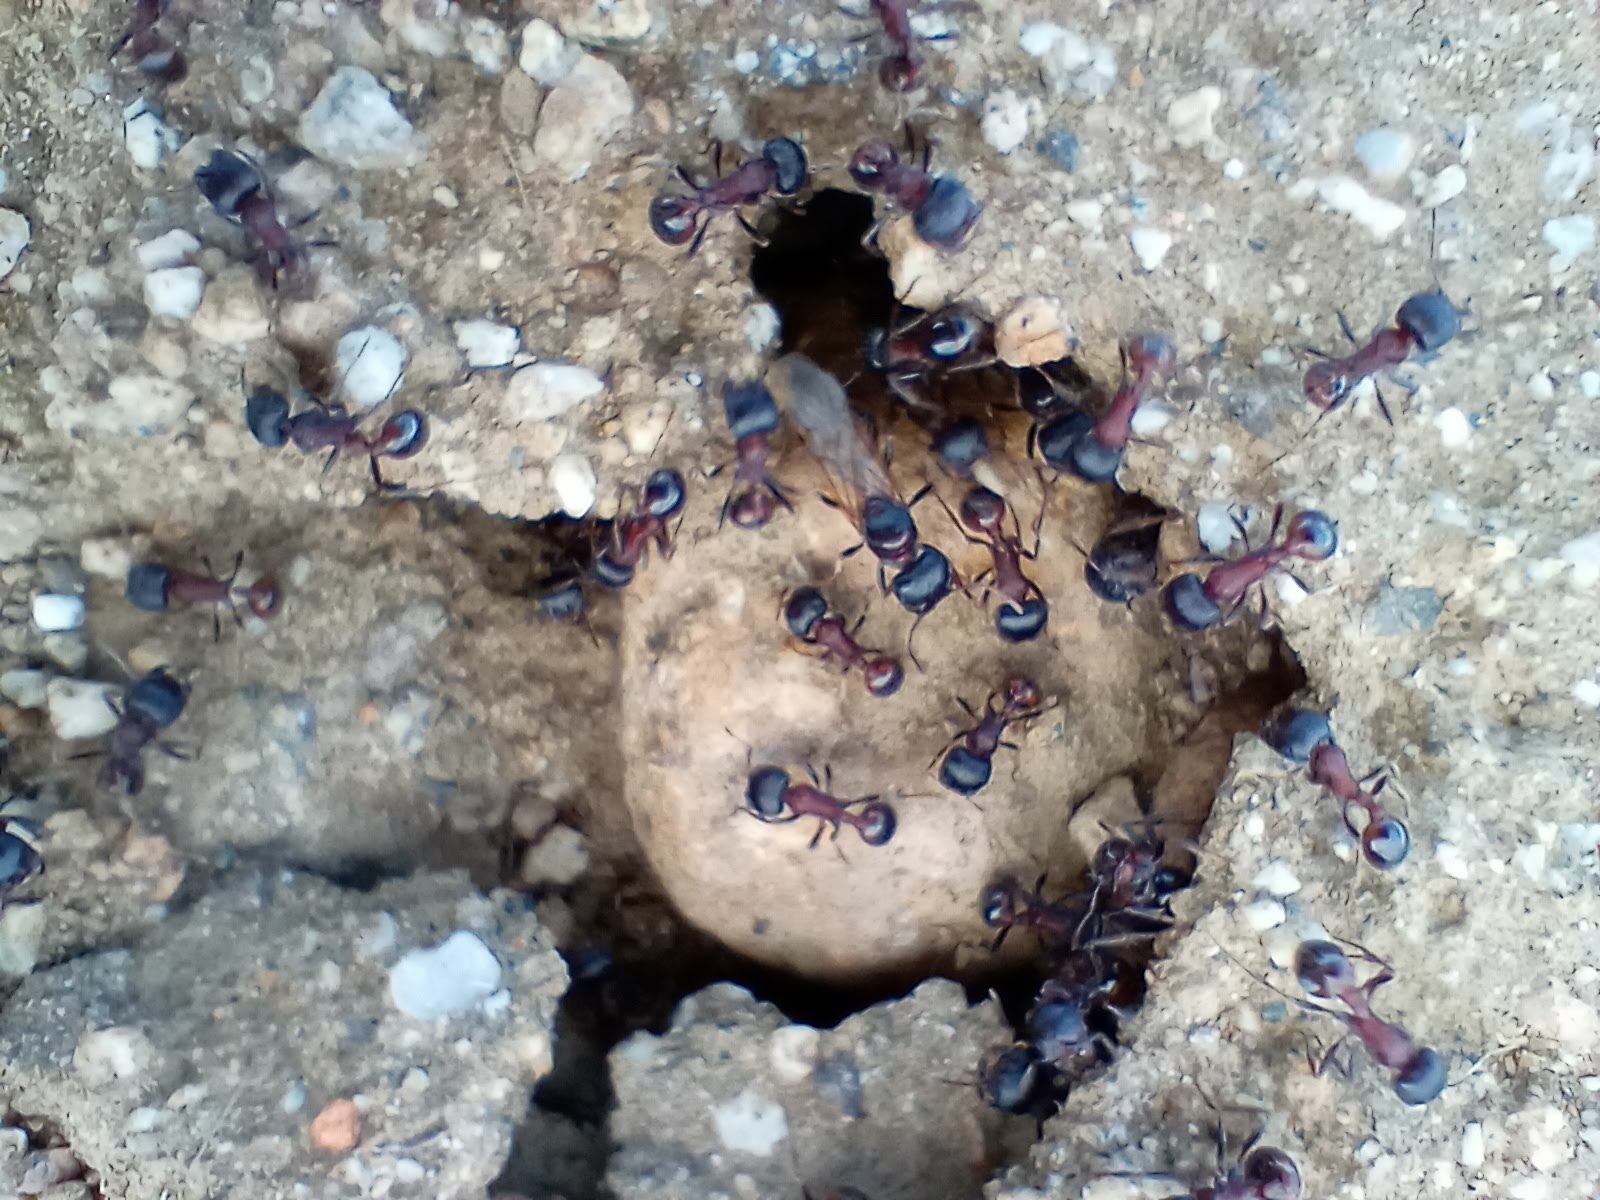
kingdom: Animalia
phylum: Arthropoda
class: Insecta
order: Hymenoptera
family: Formicidae
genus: Pogonomyrmex
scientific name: Pogonomyrmex rugosus
